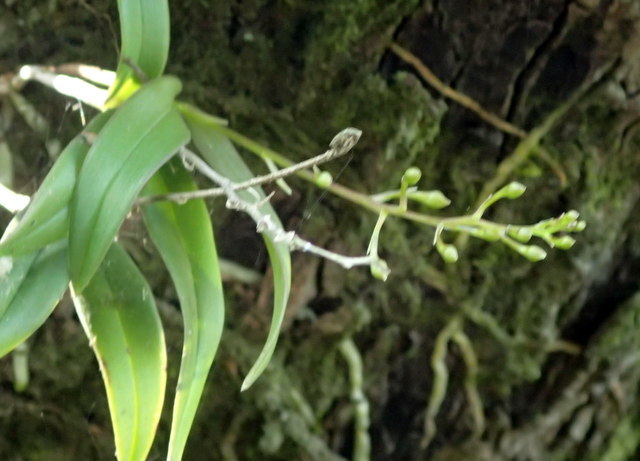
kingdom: Plantae
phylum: Tracheophyta
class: Liliopsida
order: Asparagales
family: Orchidaceae
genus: Epidendrum
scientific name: Epidendrum conopseum
